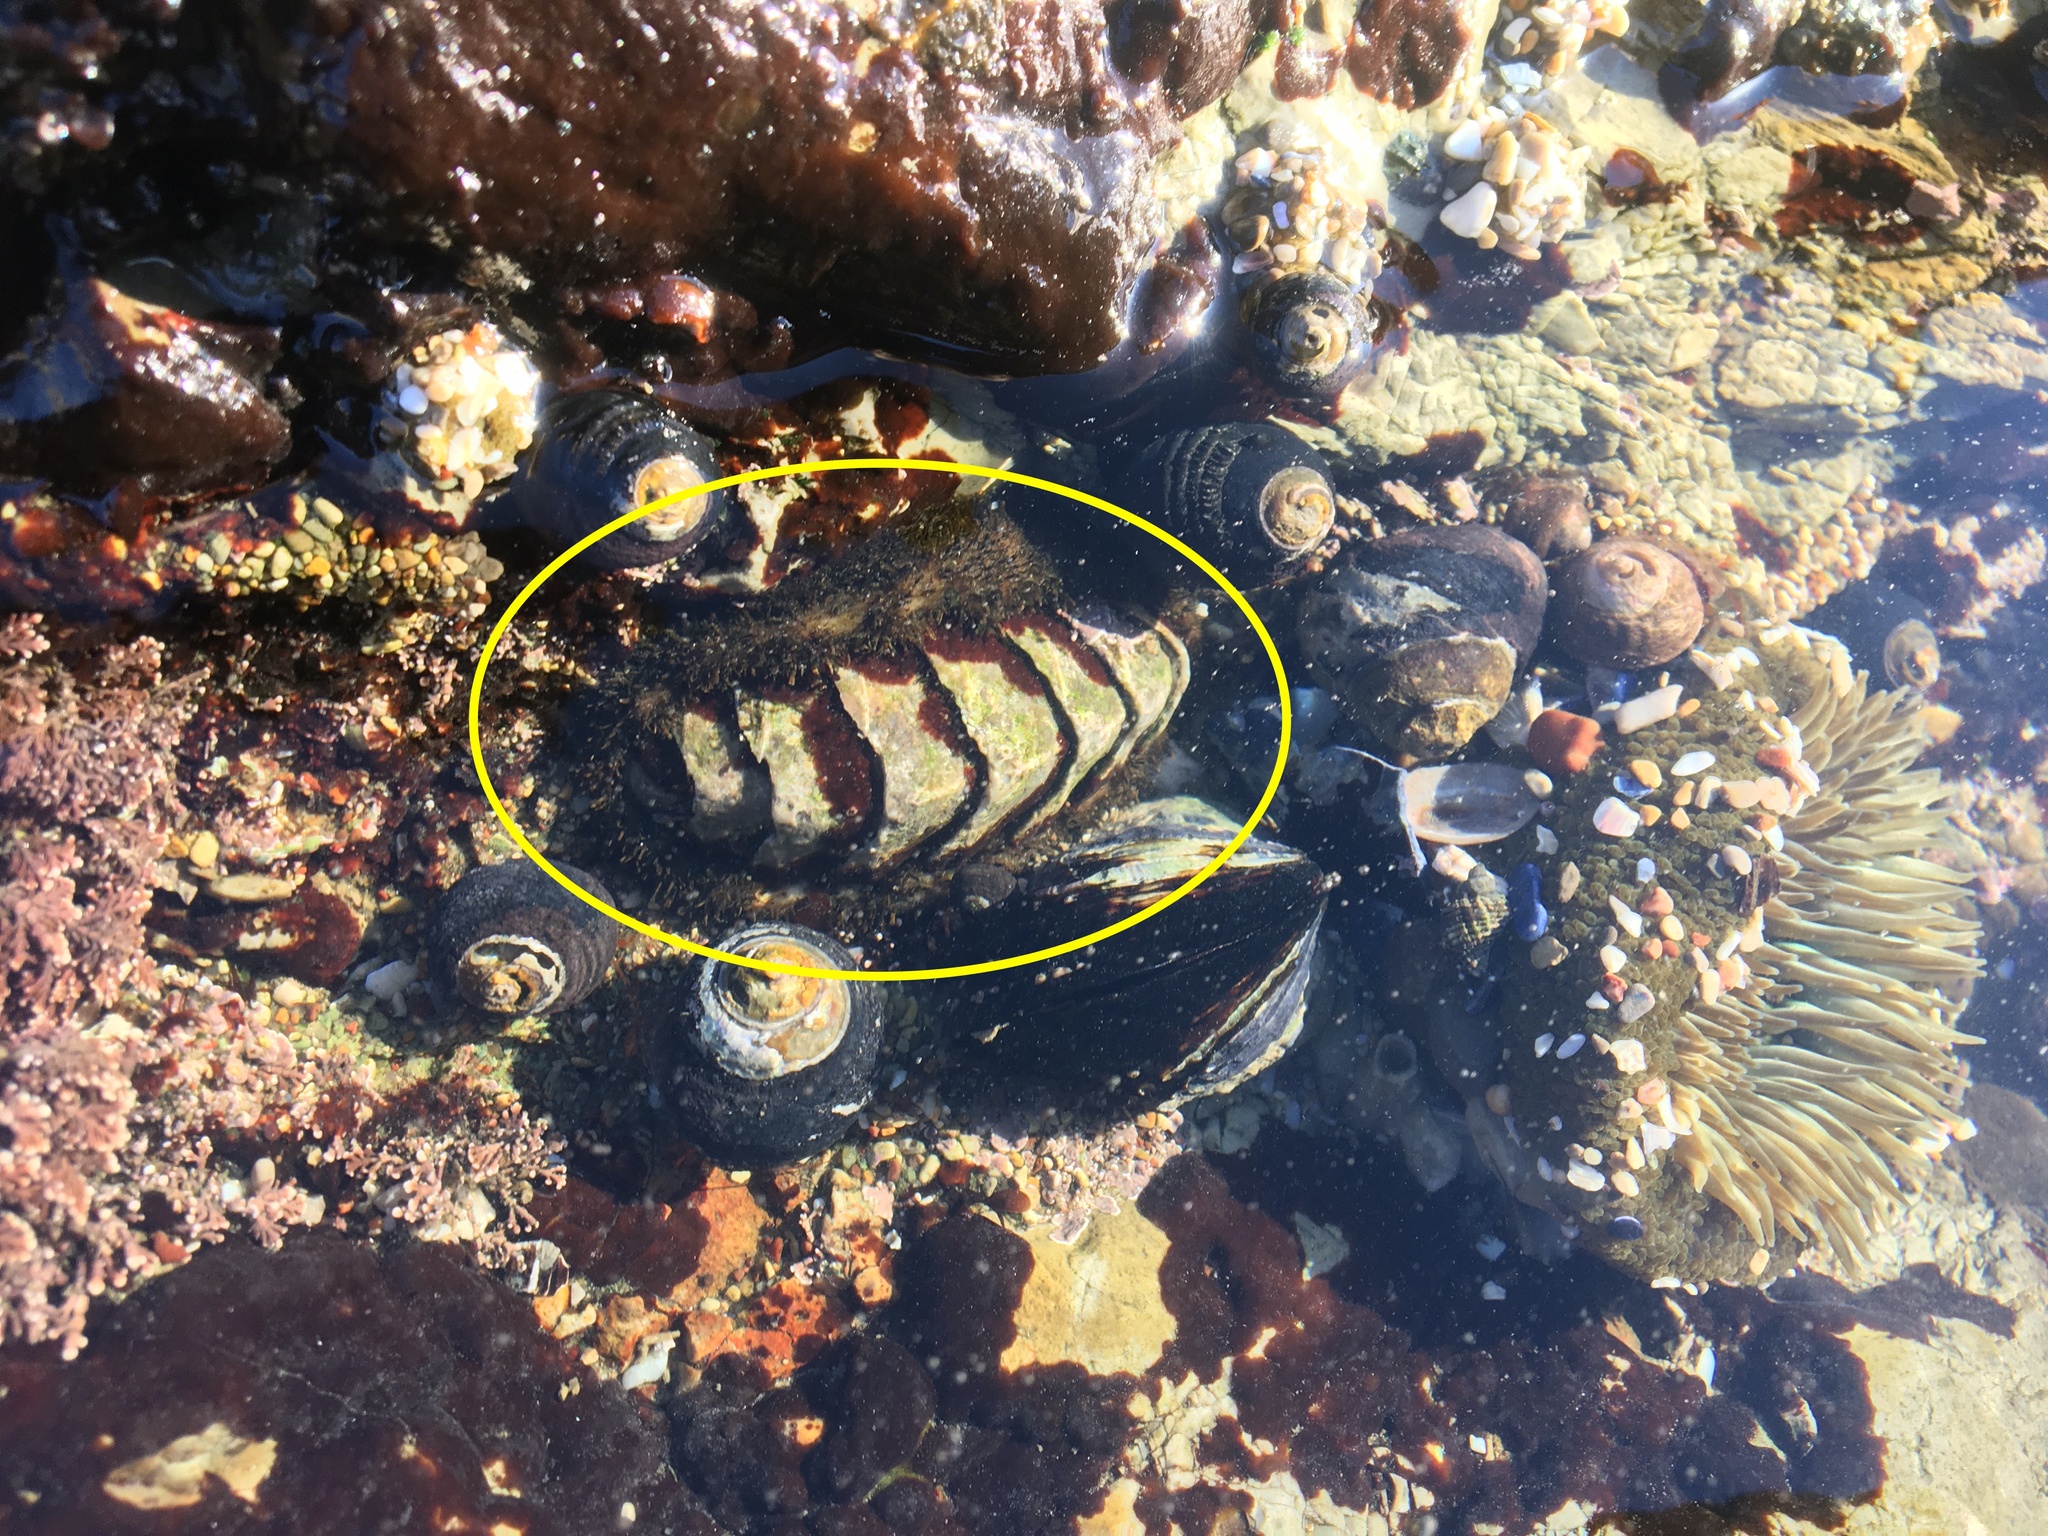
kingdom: Animalia
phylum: Mollusca
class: Polyplacophora
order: Chitonida
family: Mopaliidae
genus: Mopalia
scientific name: Mopalia muscosa
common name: Mossy chiton
